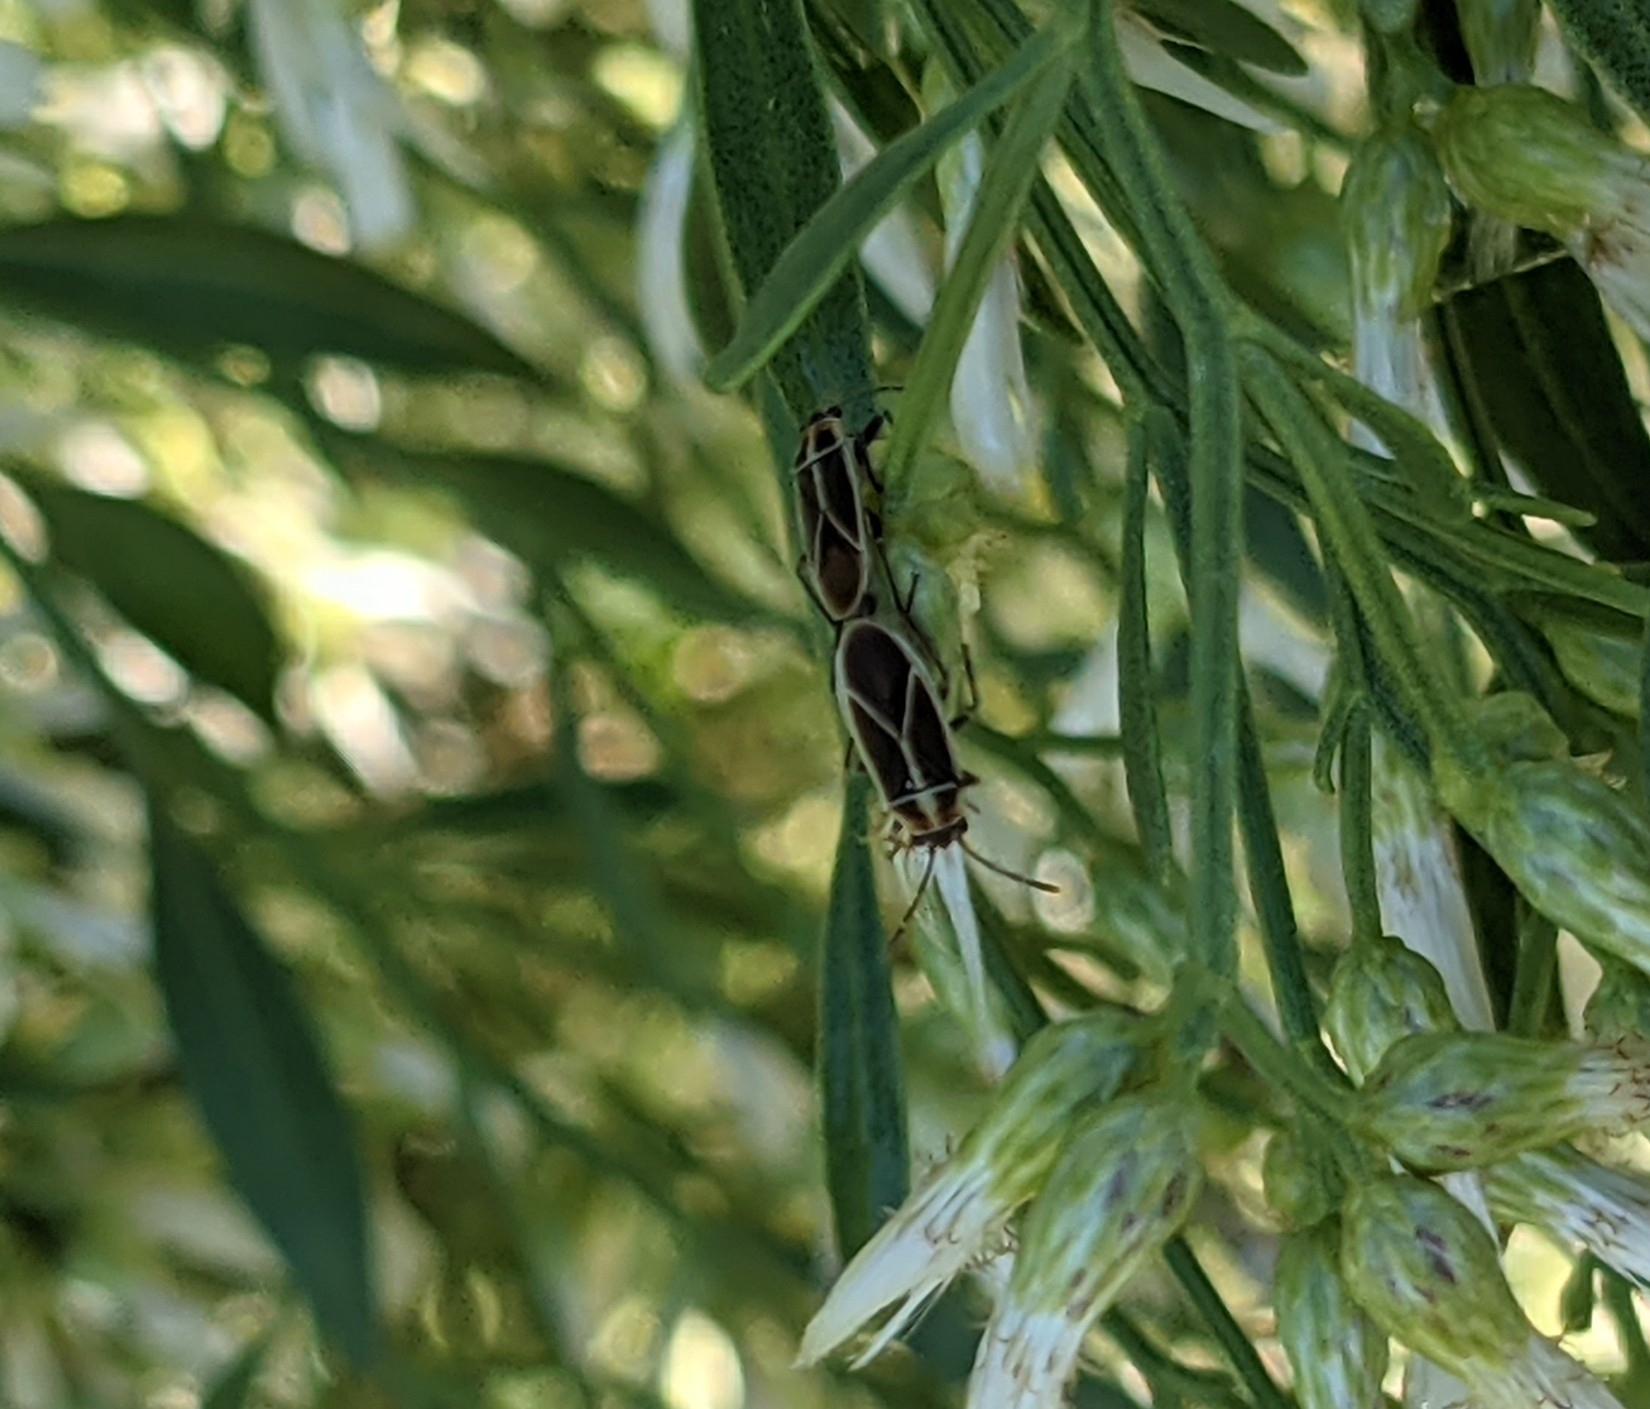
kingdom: Animalia
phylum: Arthropoda
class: Insecta
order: Hemiptera
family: Lygaeidae
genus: Ochrimnus
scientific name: Ochrimnus mimulus
